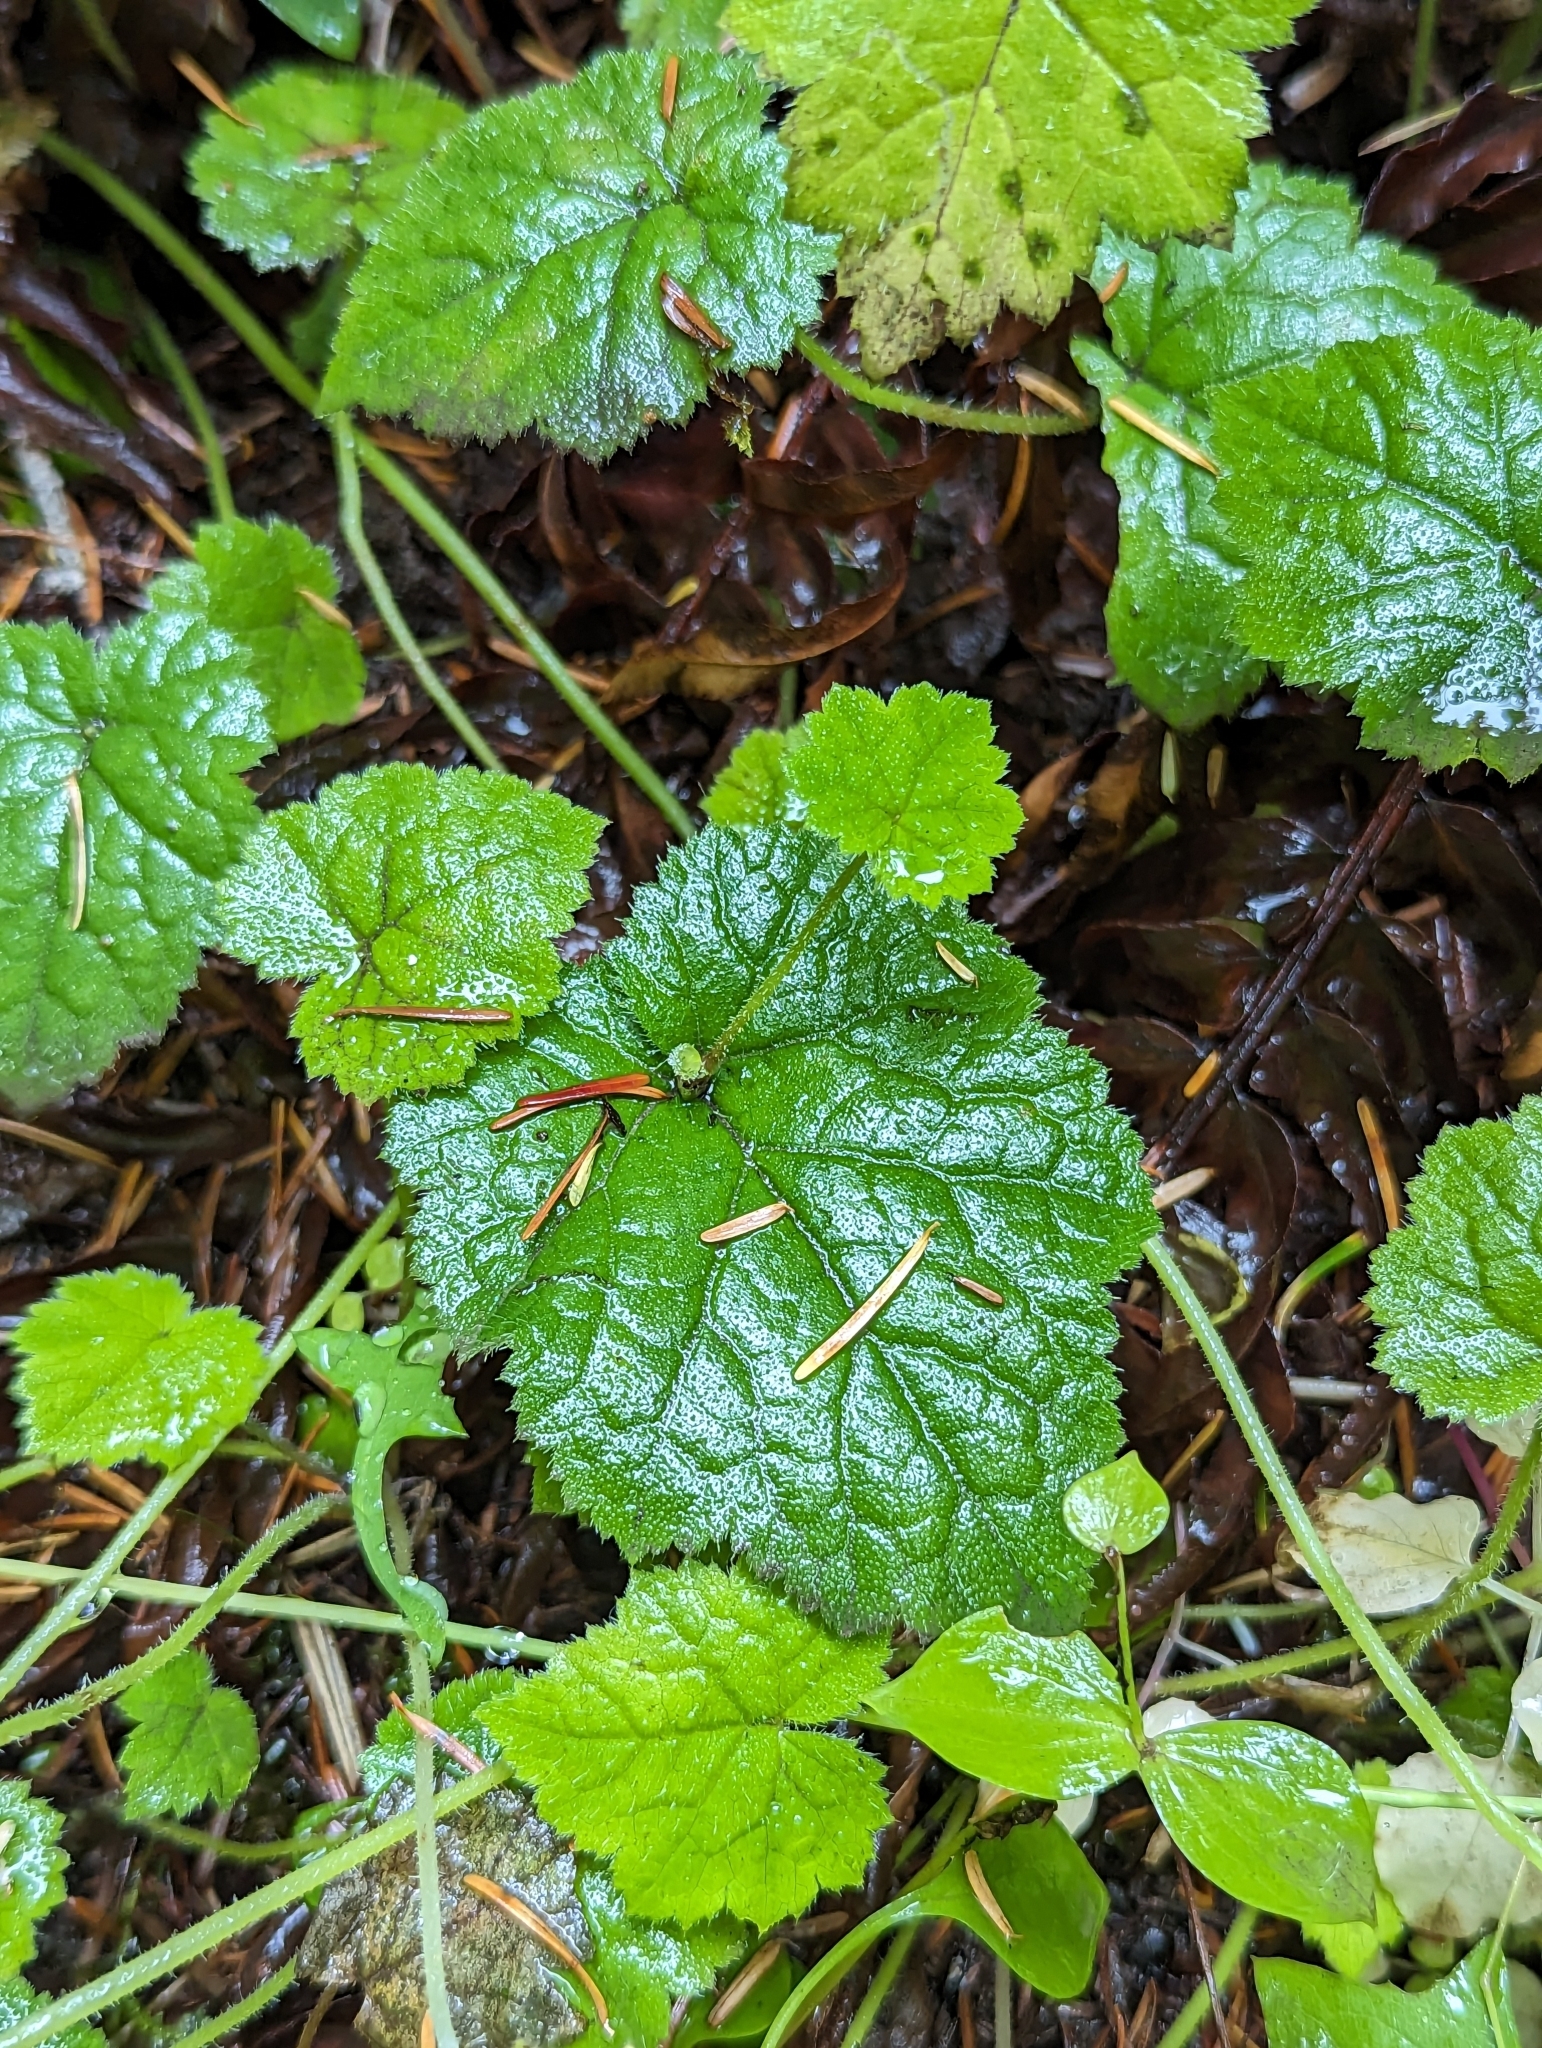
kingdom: Plantae
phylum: Tracheophyta
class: Magnoliopsida
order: Saxifragales
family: Saxifragaceae
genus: Tolmiea
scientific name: Tolmiea menziesii
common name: Pick-a-back-plant
